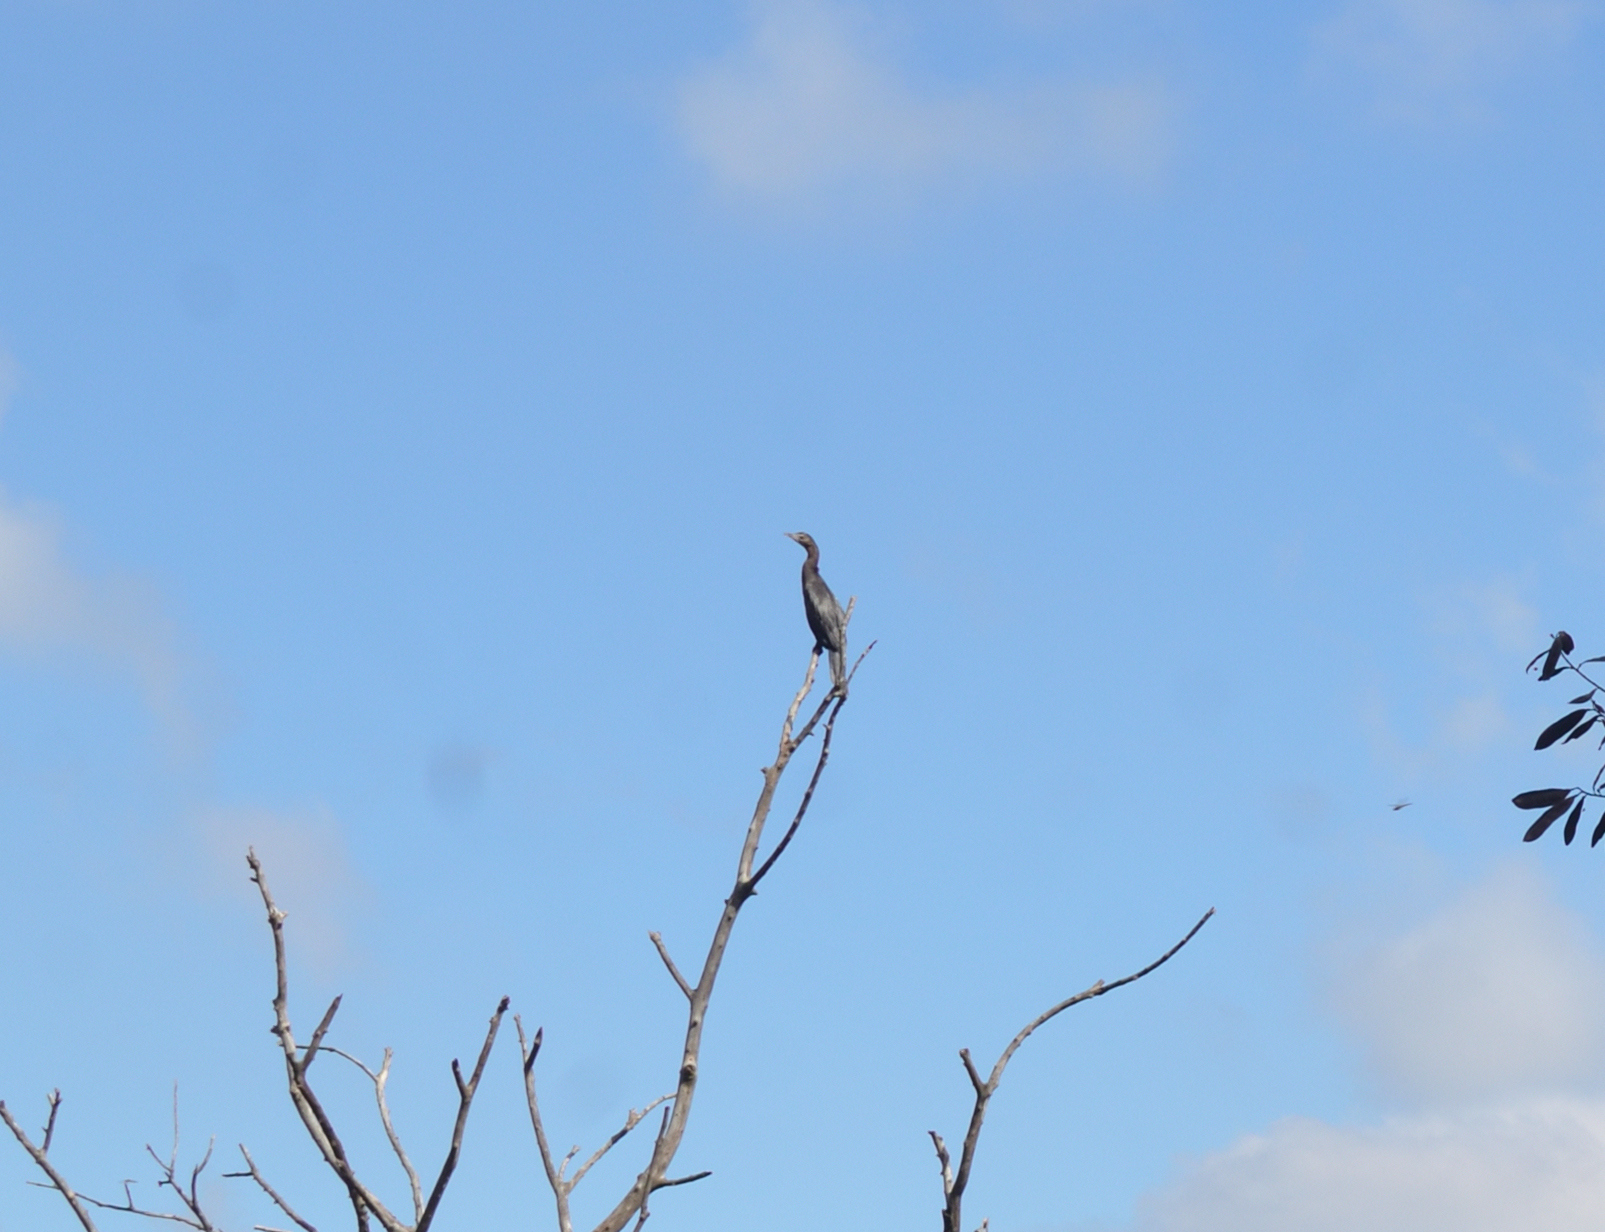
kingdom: Animalia
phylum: Chordata
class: Aves
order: Suliformes
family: Phalacrocoracidae
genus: Microcarbo
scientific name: Microcarbo niger
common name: Little cormorant
